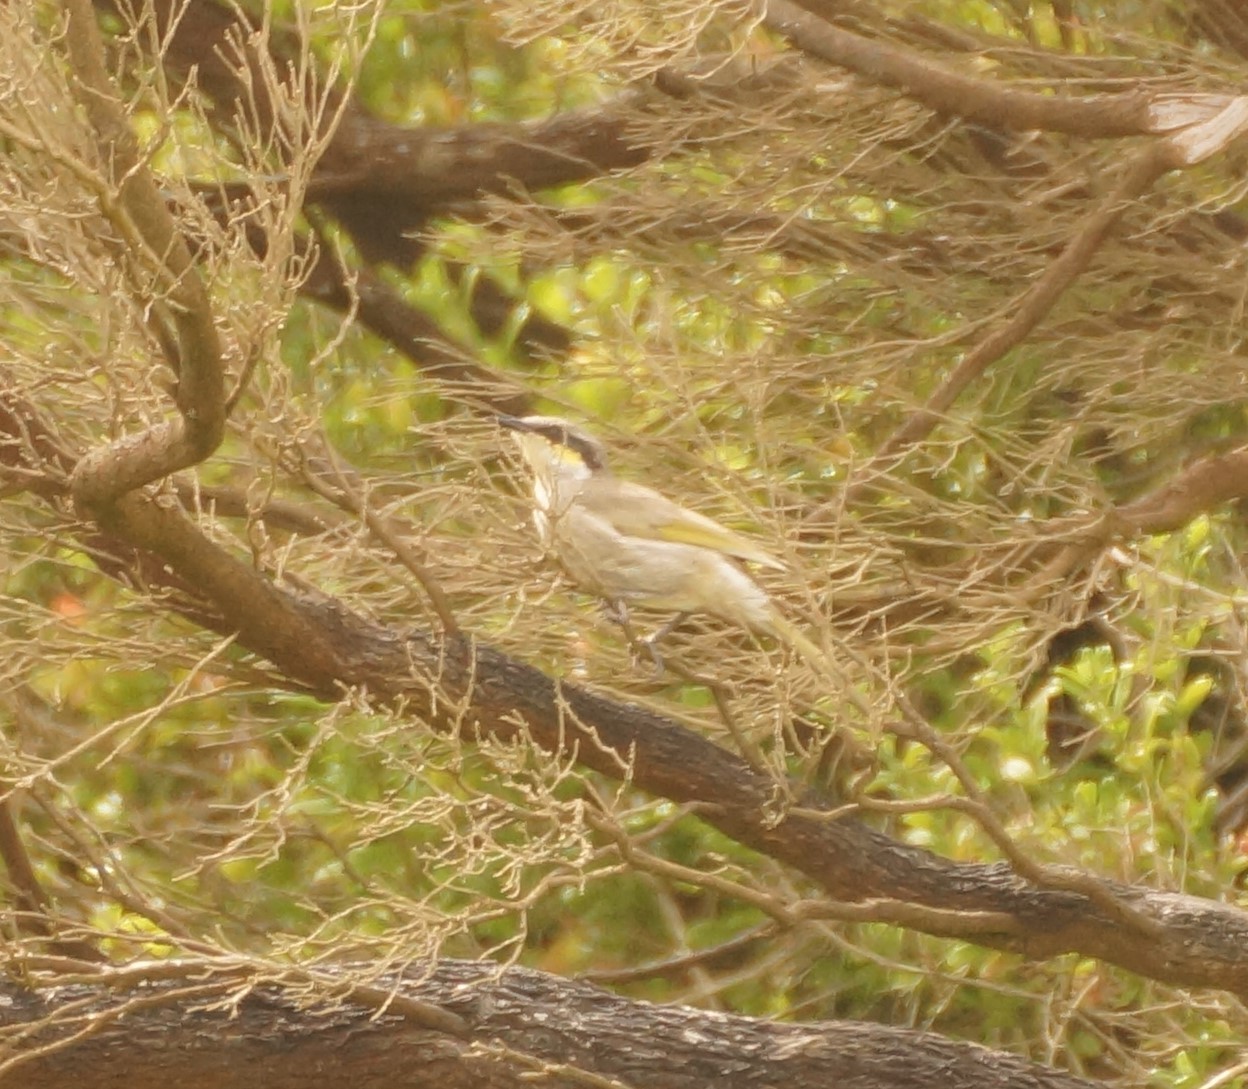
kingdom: Animalia
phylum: Chordata
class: Aves
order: Passeriformes
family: Meliphagidae
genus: Gavicalis
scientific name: Gavicalis virescens
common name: Singing honeyeater
